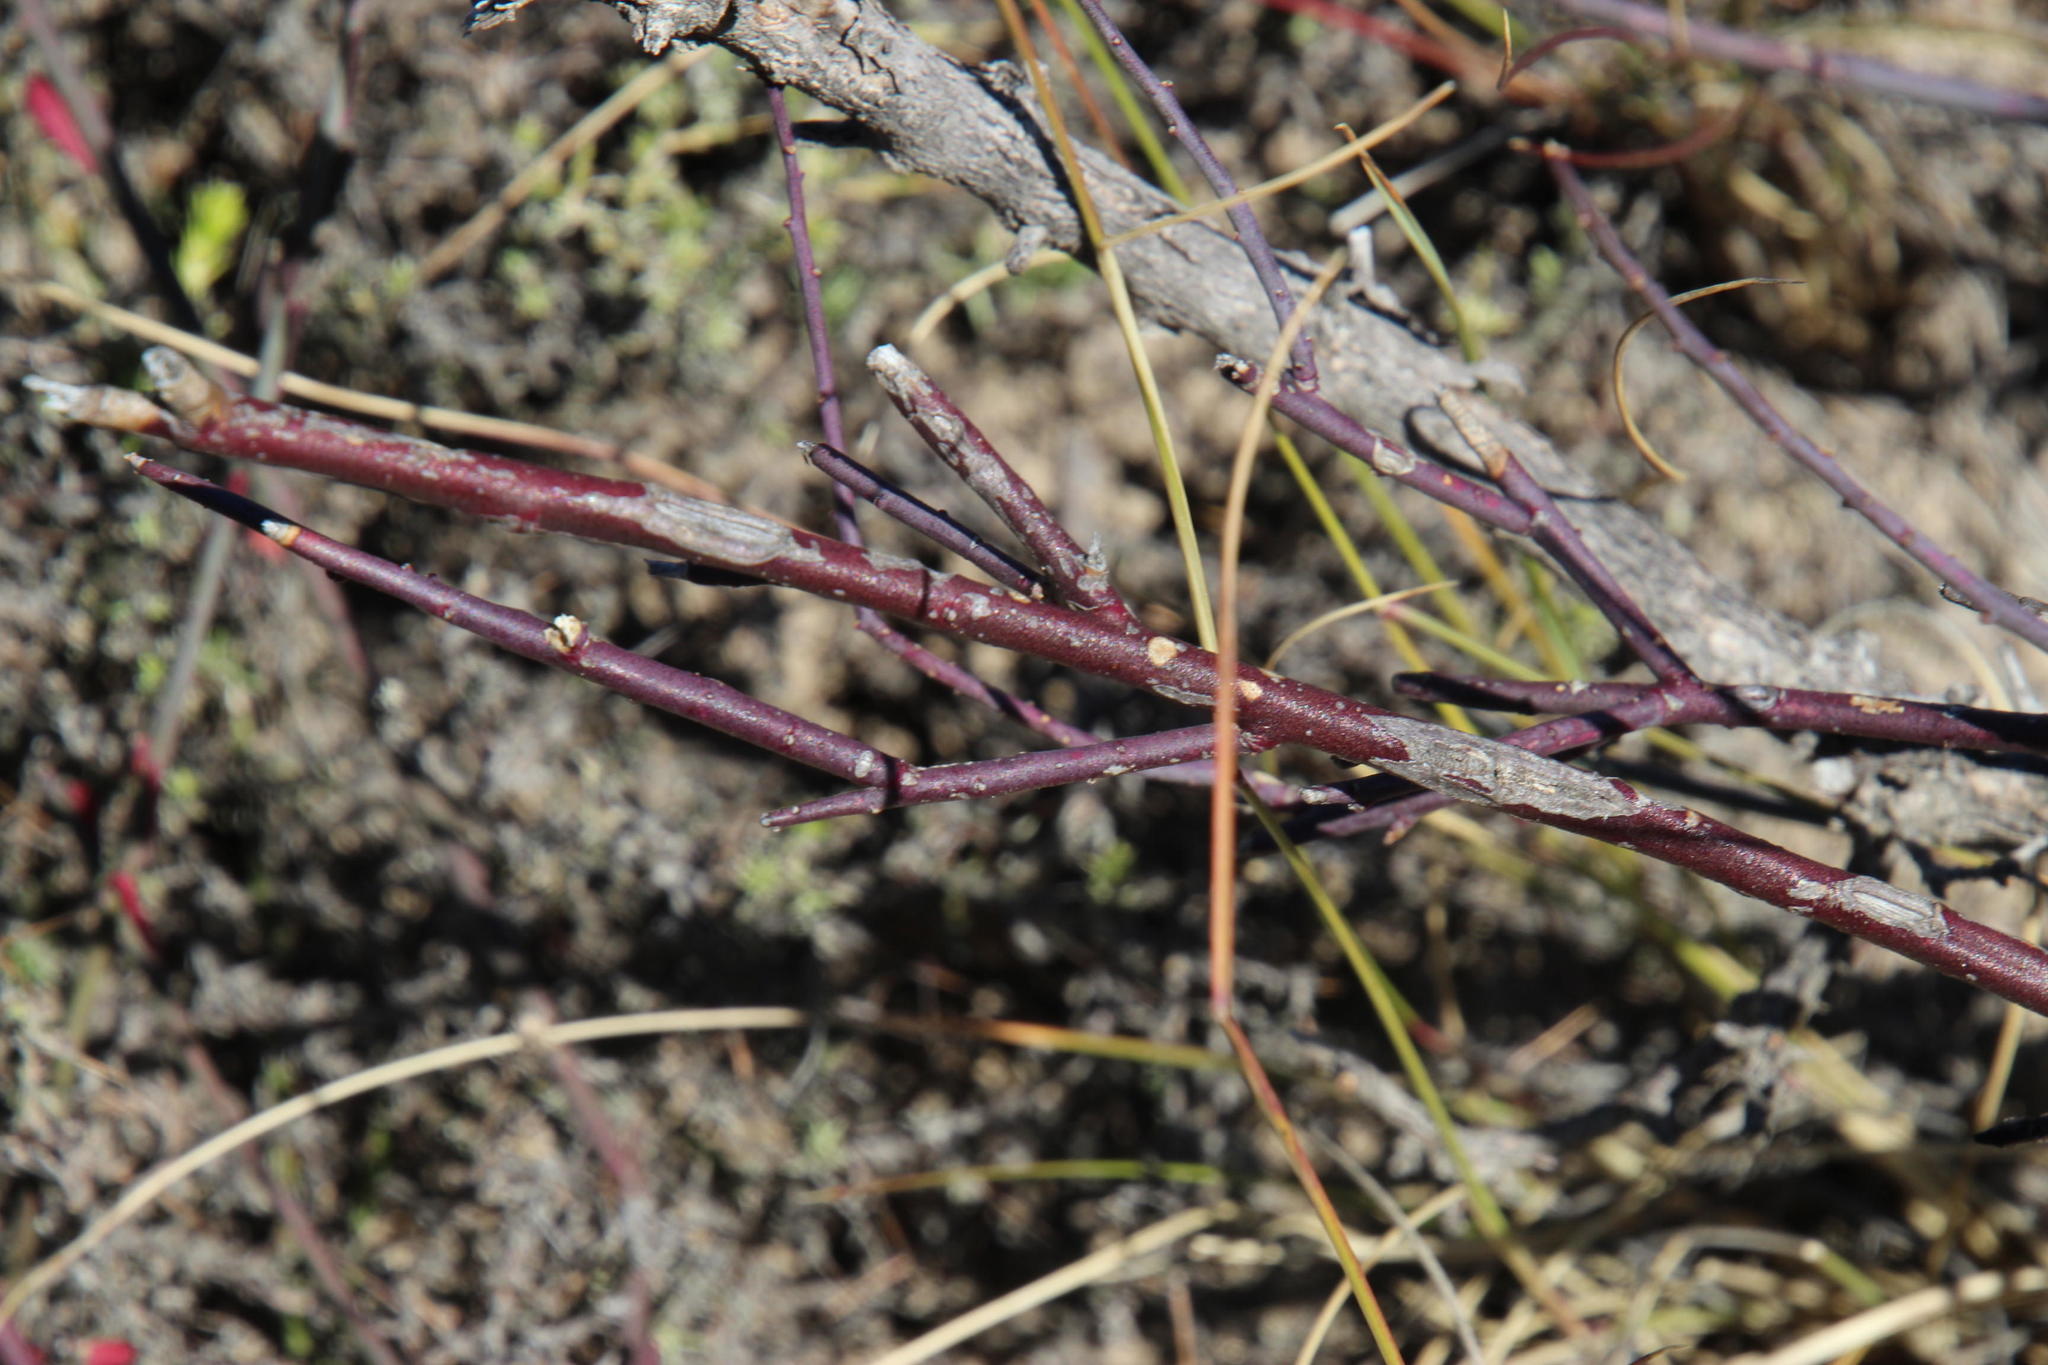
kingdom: Plantae
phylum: Tracheophyta
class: Magnoliopsida
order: Gentianales
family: Apocynaceae
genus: Cynanchum
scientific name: Cynanchum viminale
